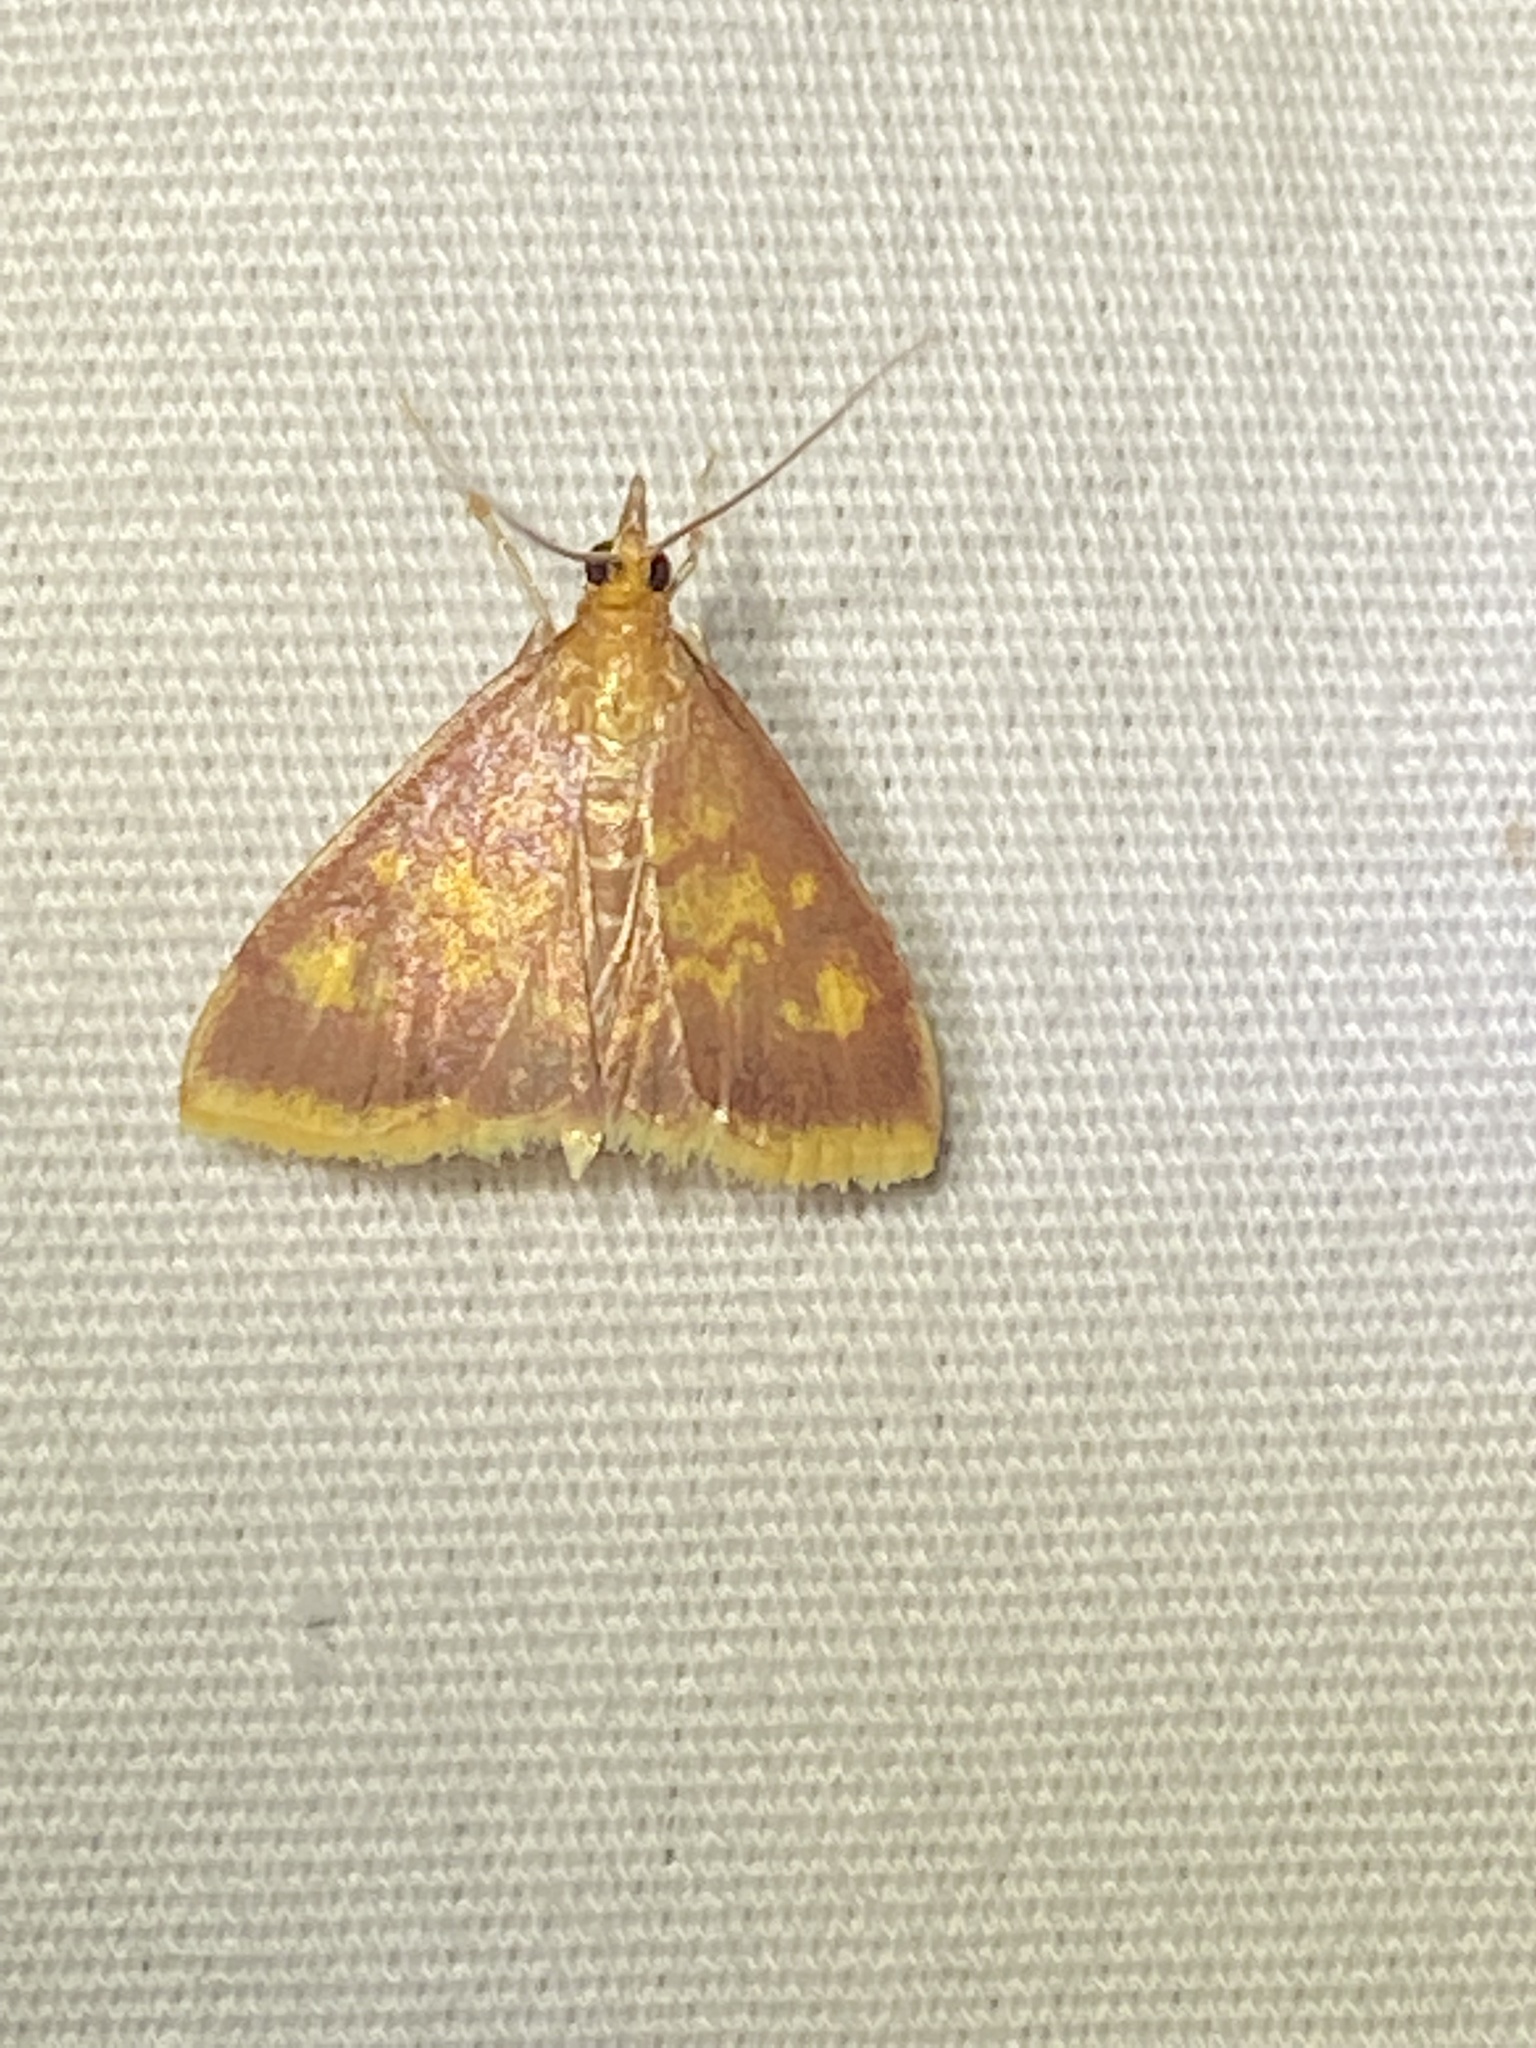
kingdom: Animalia
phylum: Arthropoda
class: Insecta
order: Lepidoptera
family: Crambidae
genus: Pyrausta
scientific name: Pyrausta acrionalis
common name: Mint-loving pyrausta moth
